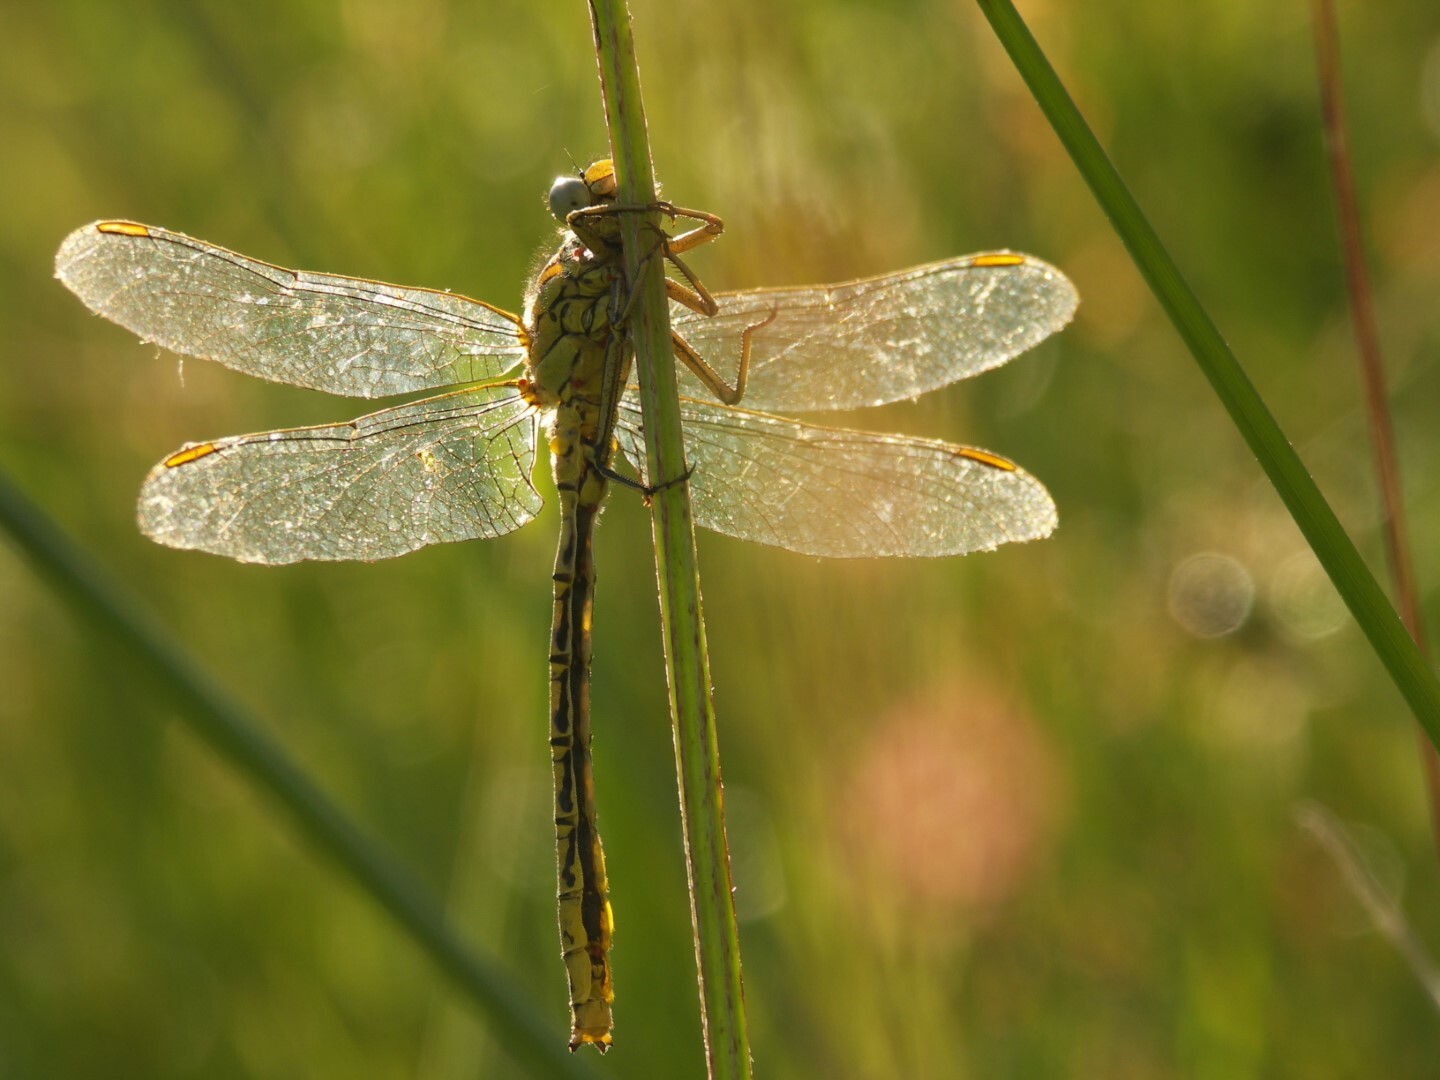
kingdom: Animalia
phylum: Arthropoda
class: Insecta
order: Odonata
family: Gomphidae
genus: Gomphus
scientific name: Gomphus pulchellus
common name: Western clubtail
